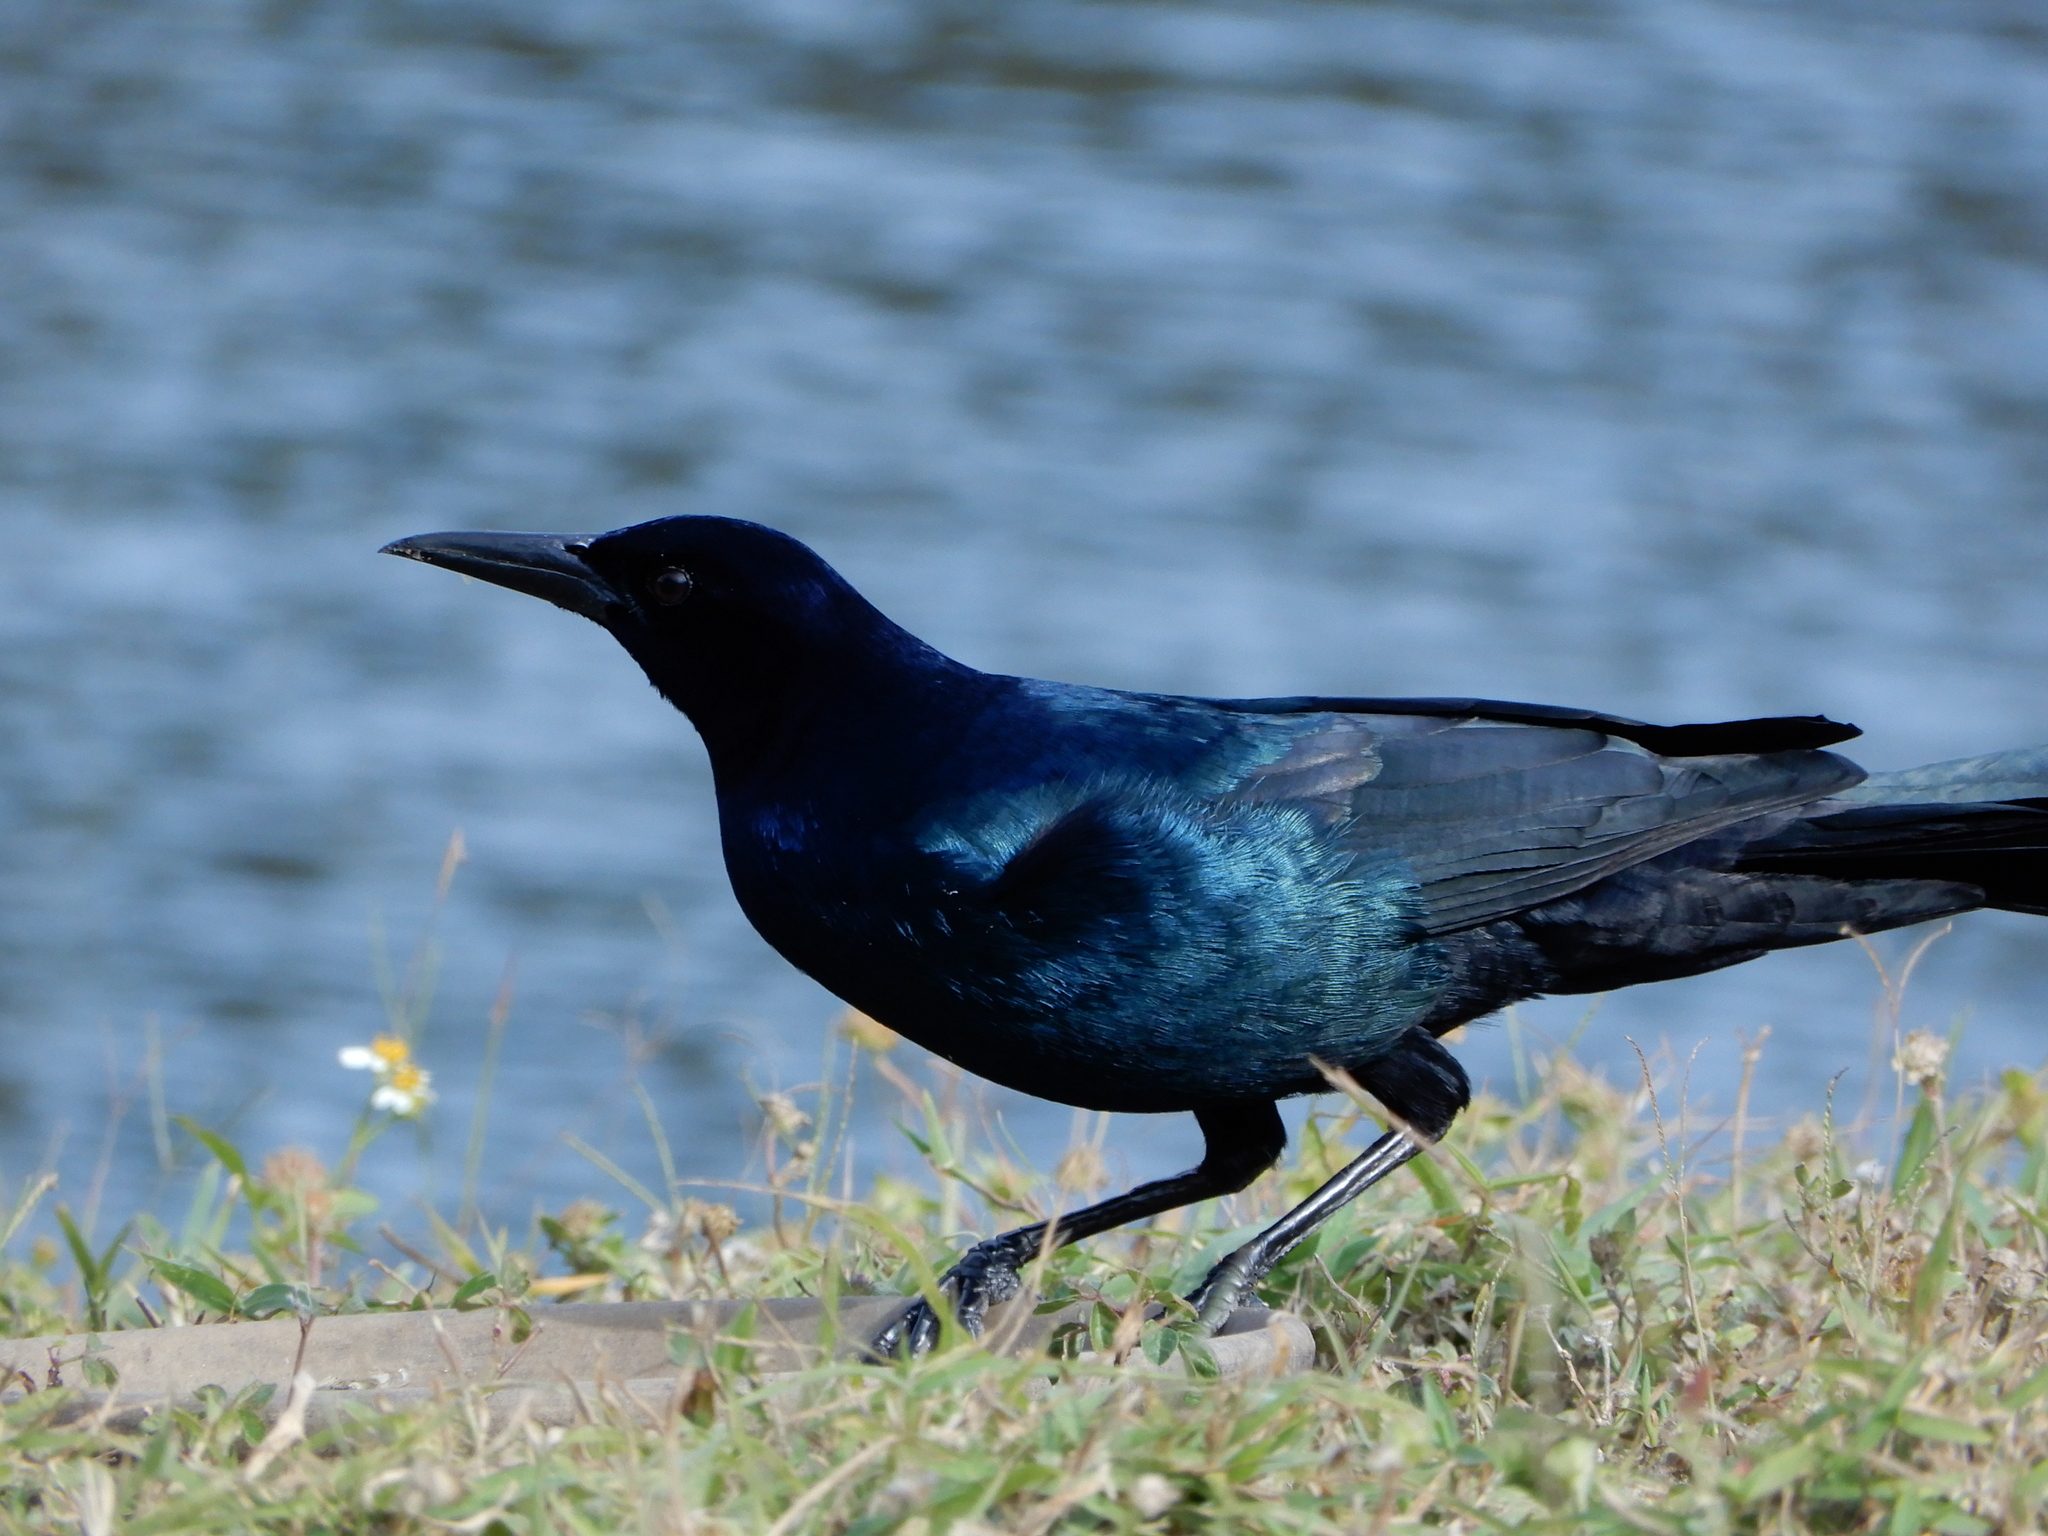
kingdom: Animalia
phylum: Chordata
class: Aves
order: Passeriformes
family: Icteridae
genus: Quiscalus
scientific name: Quiscalus major
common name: Boat-tailed grackle
